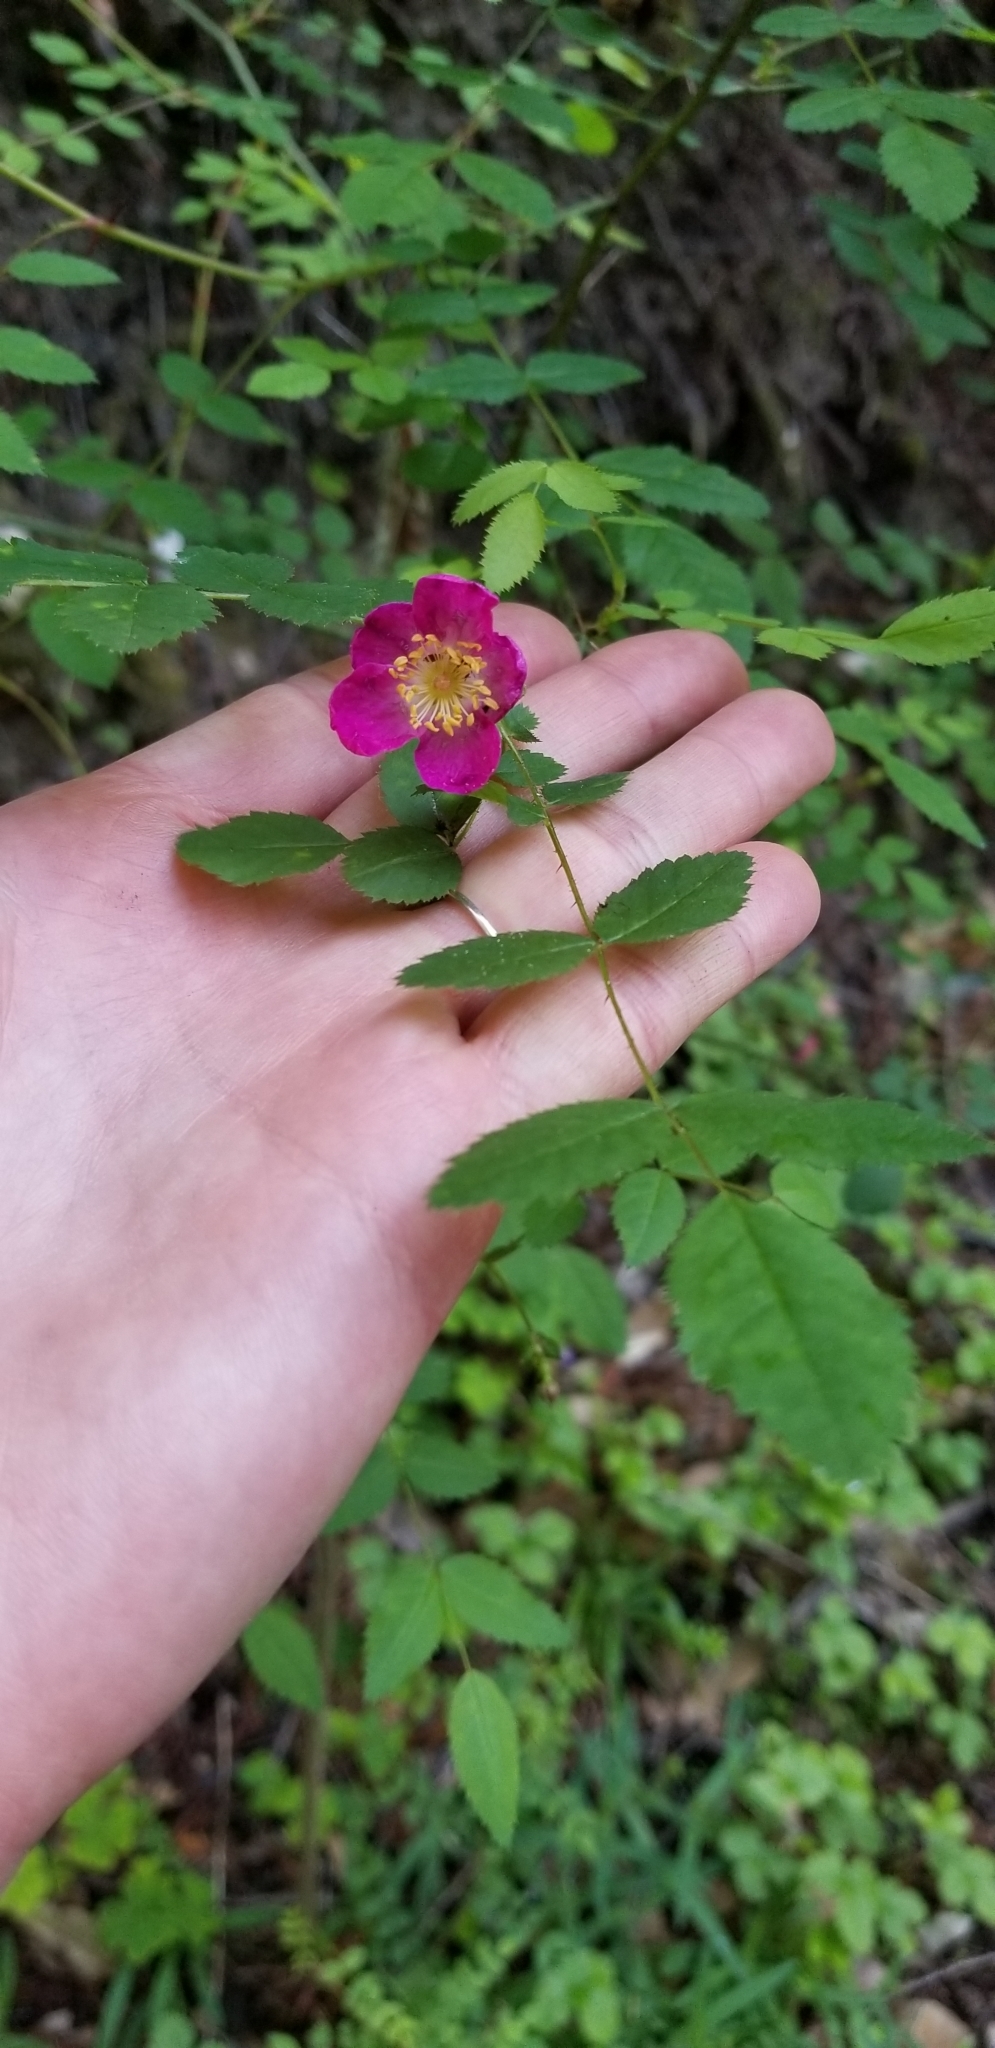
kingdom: Plantae
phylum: Tracheophyta
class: Magnoliopsida
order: Rosales
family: Rosaceae
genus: Rosa
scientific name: Rosa gymnocarpa
